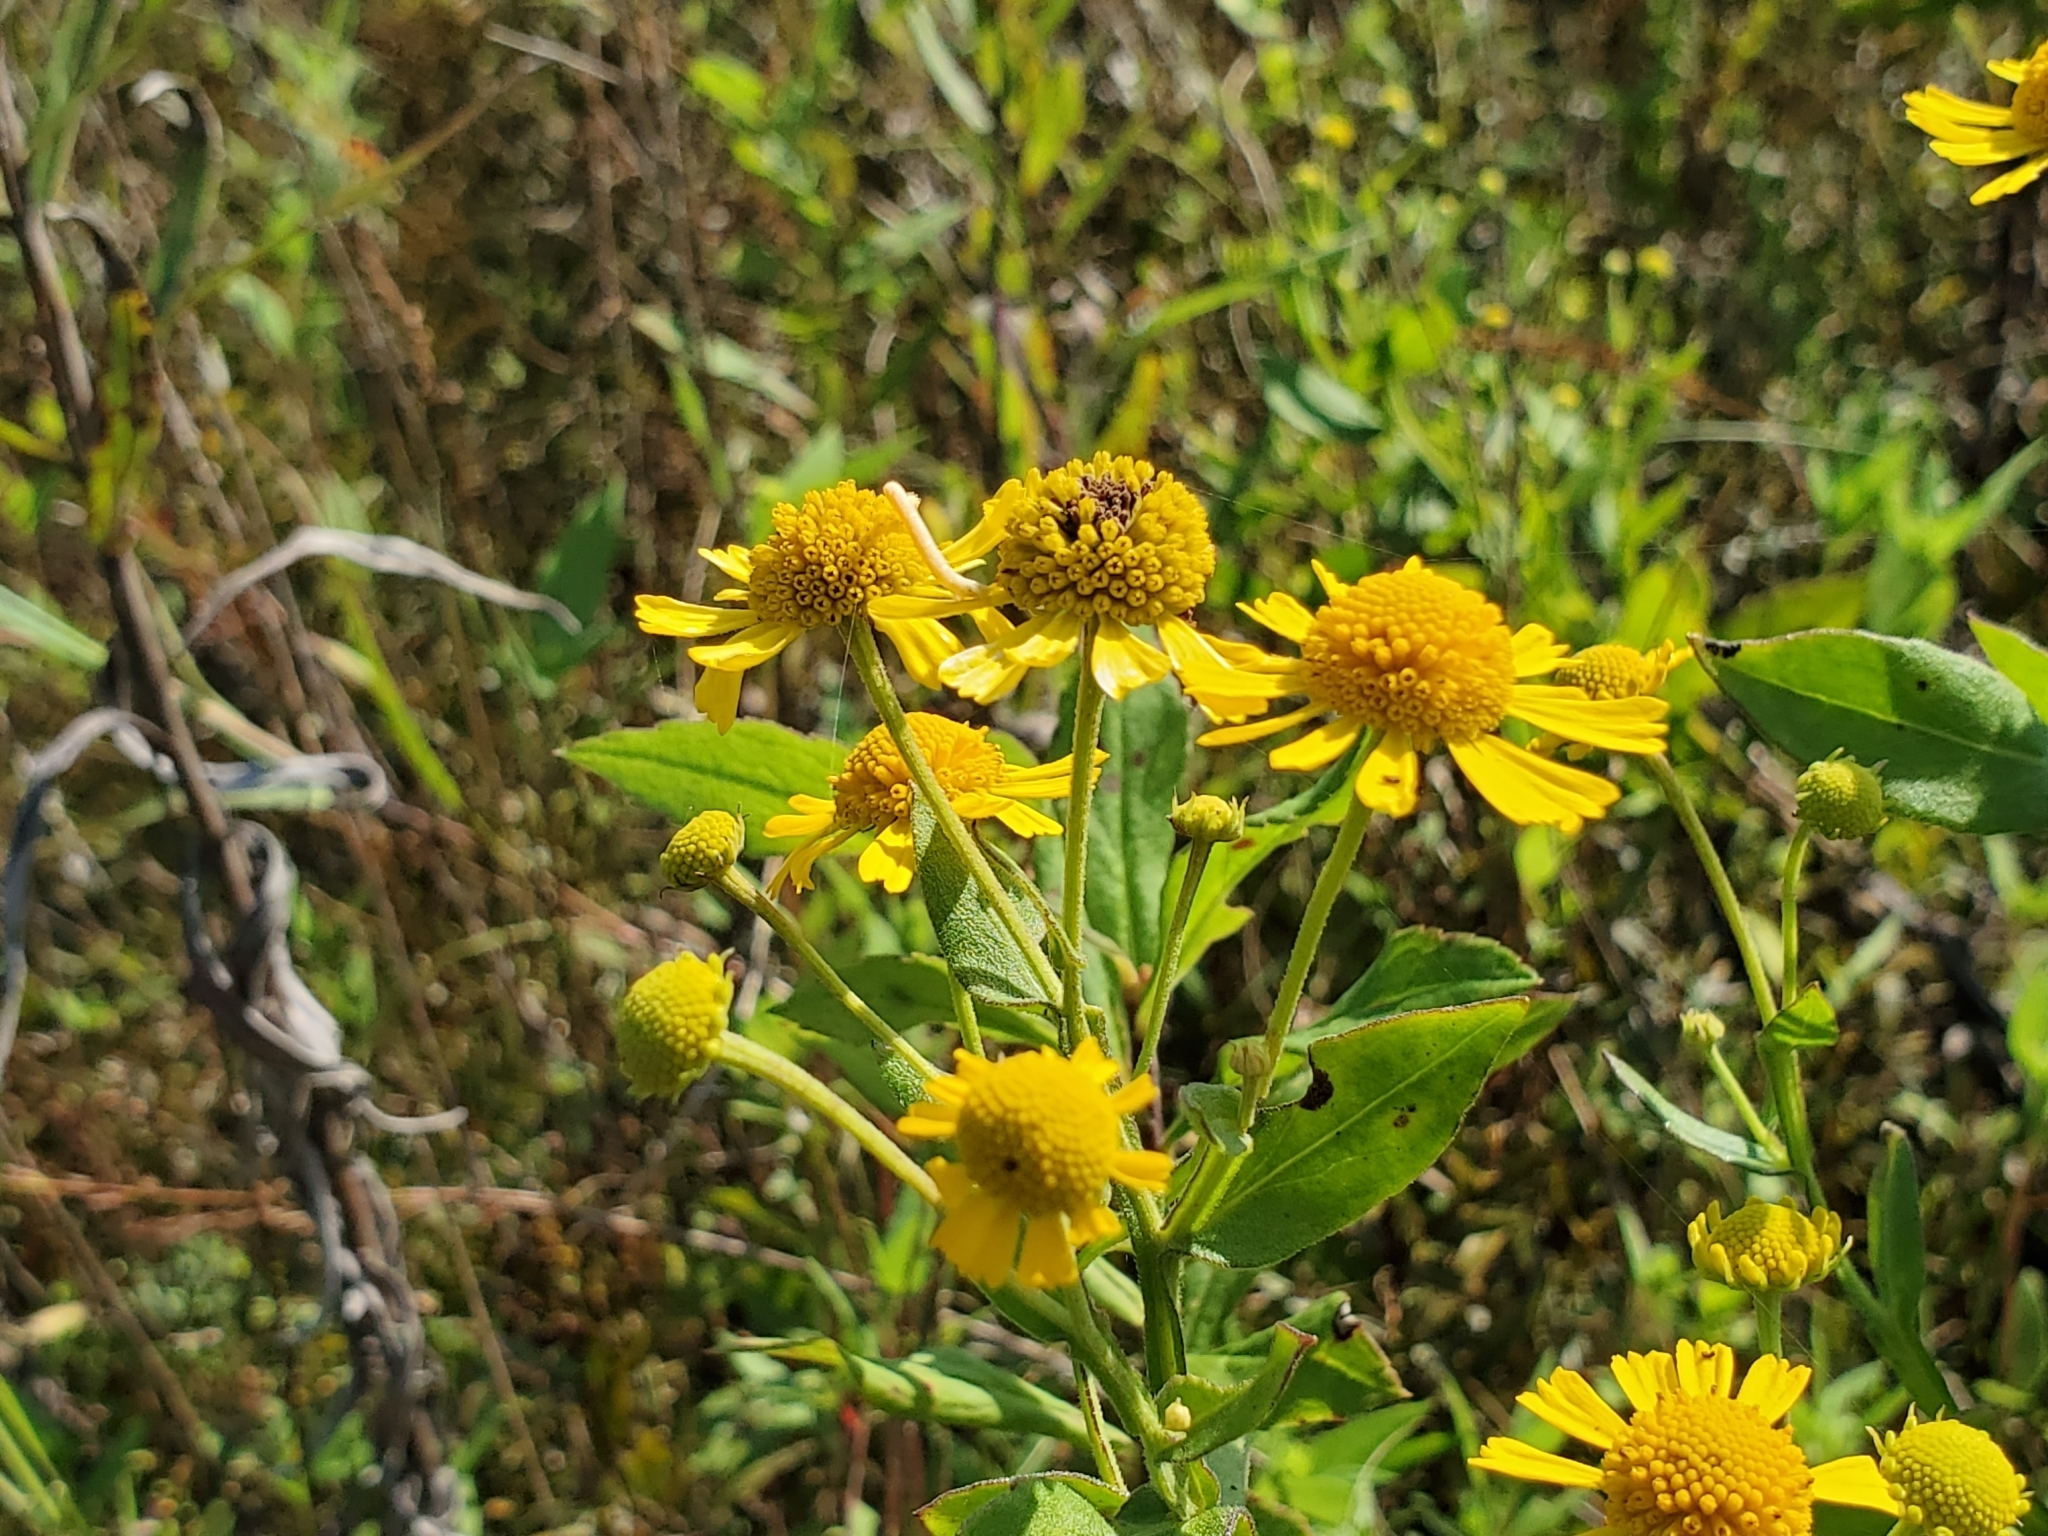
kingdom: Plantae
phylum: Tracheophyta
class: Magnoliopsida
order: Asterales
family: Asteraceae
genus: Helenium
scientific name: Helenium autumnale
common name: Sneezeweed
